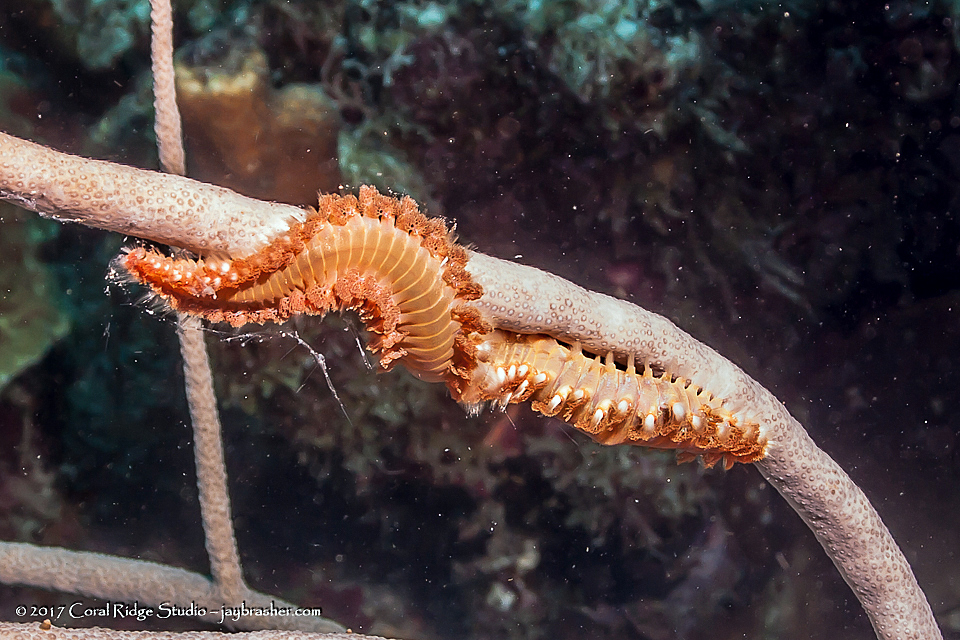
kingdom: Animalia
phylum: Annelida
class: Polychaeta
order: Amphinomida
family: Amphinomidae
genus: Hermodice
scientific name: Hermodice carunculata
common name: Bearded fireworm
